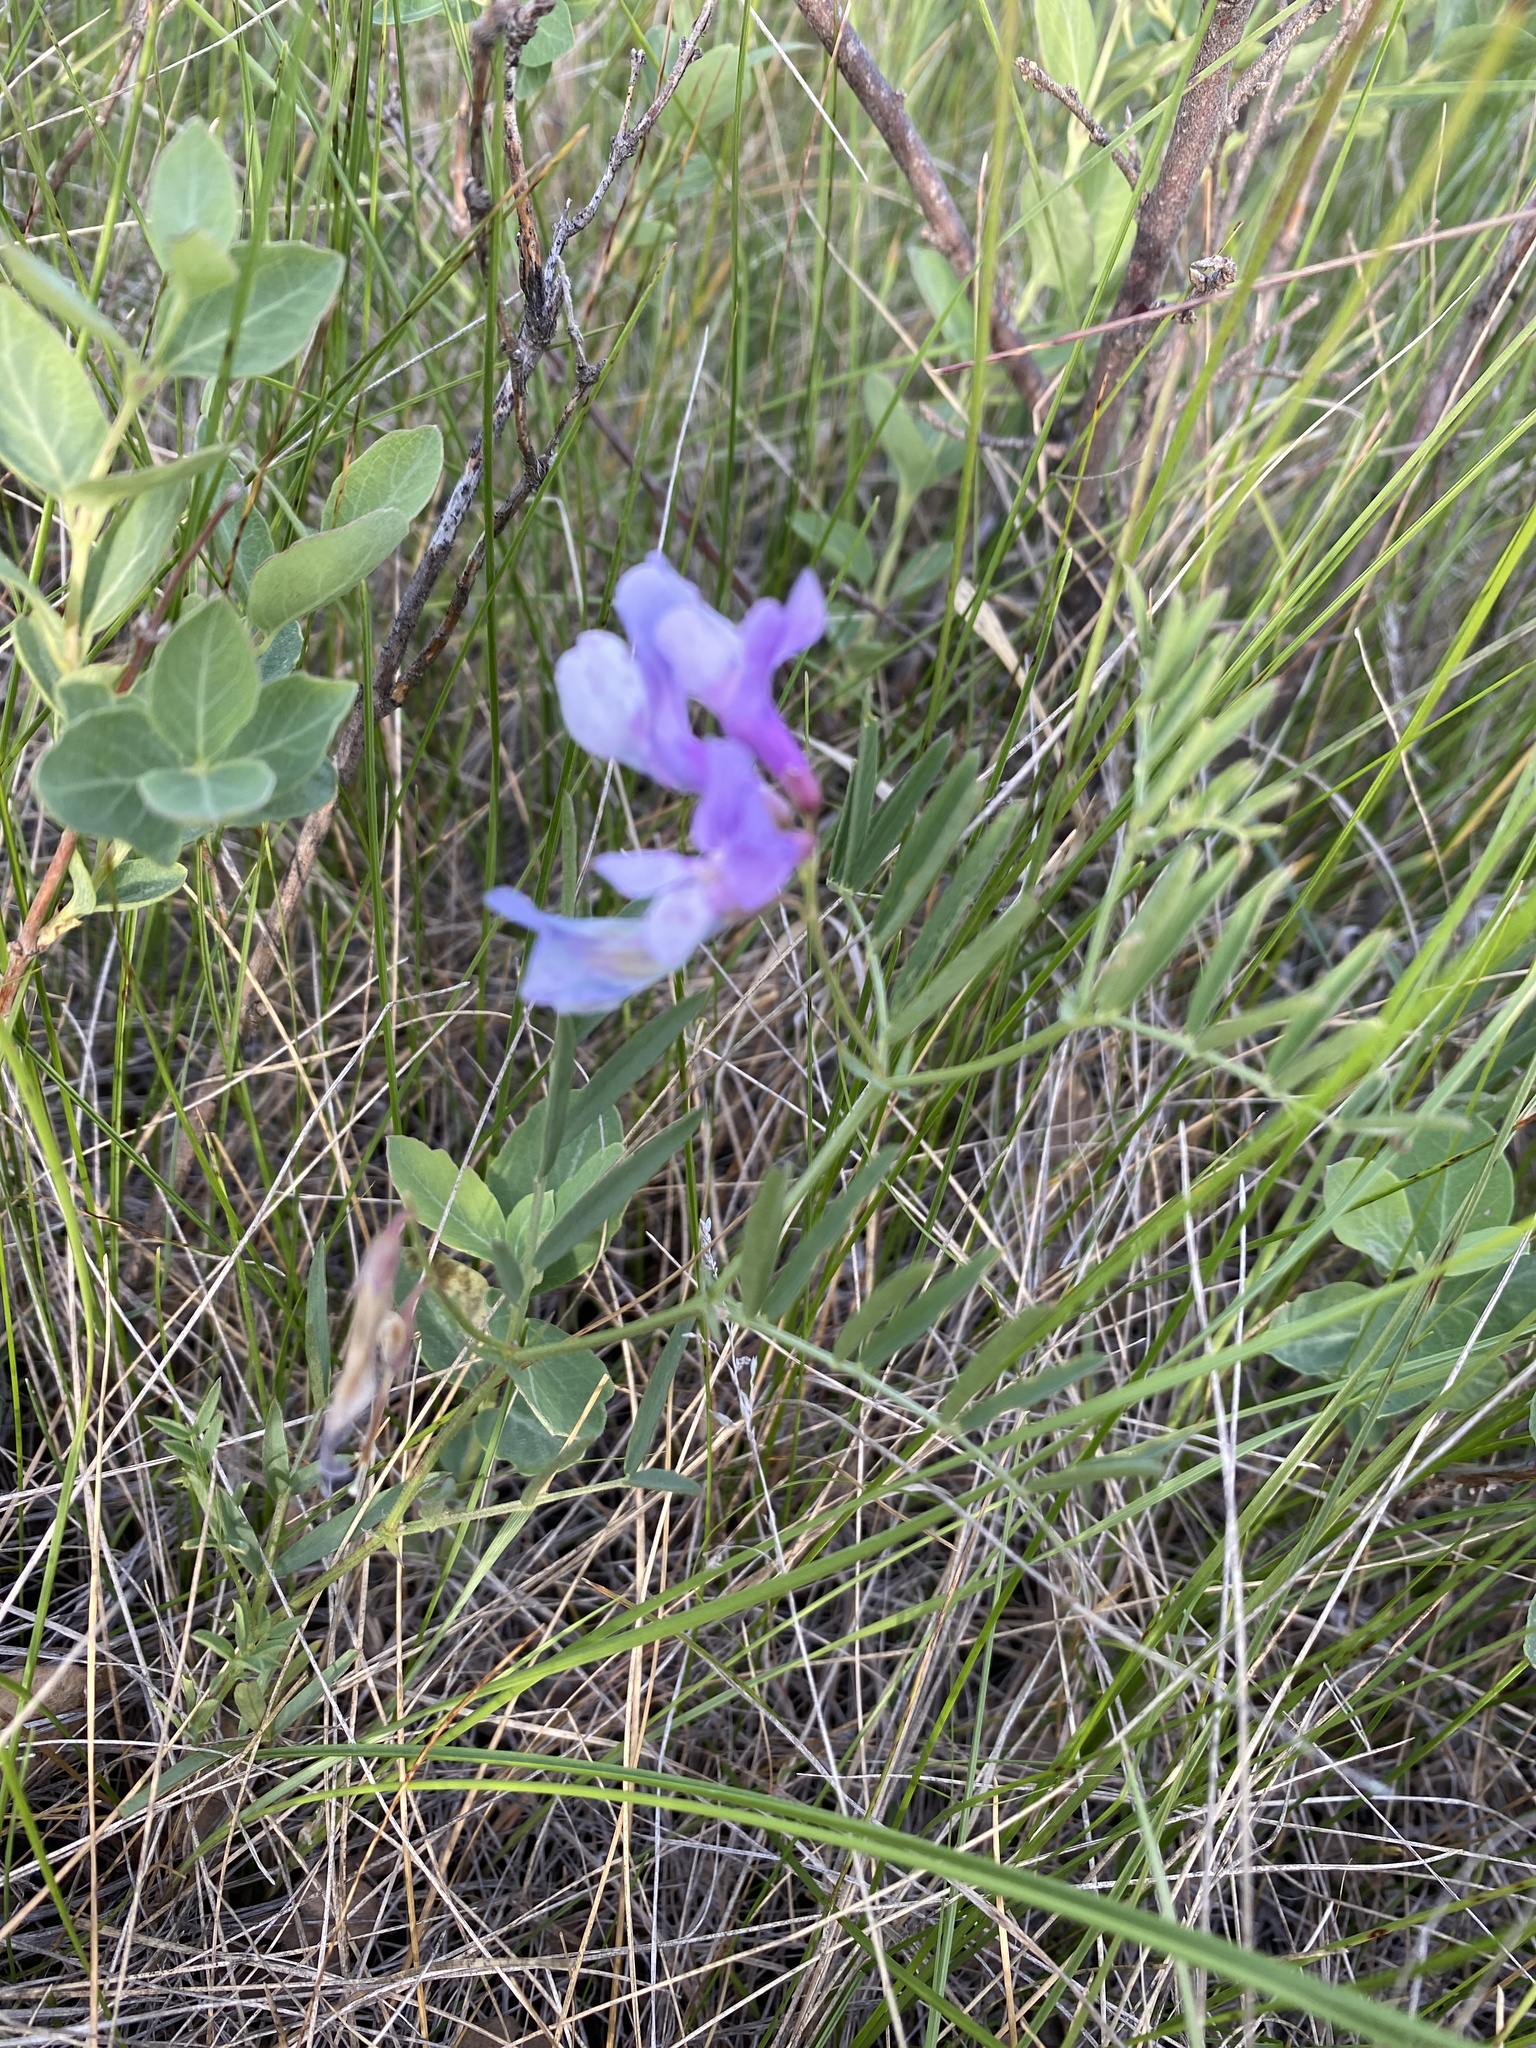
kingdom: Plantae
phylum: Tracheophyta
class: Magnoliopsida
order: Fabales
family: Fabaceae
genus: Vicia
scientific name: Vicia americana
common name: American vetch
